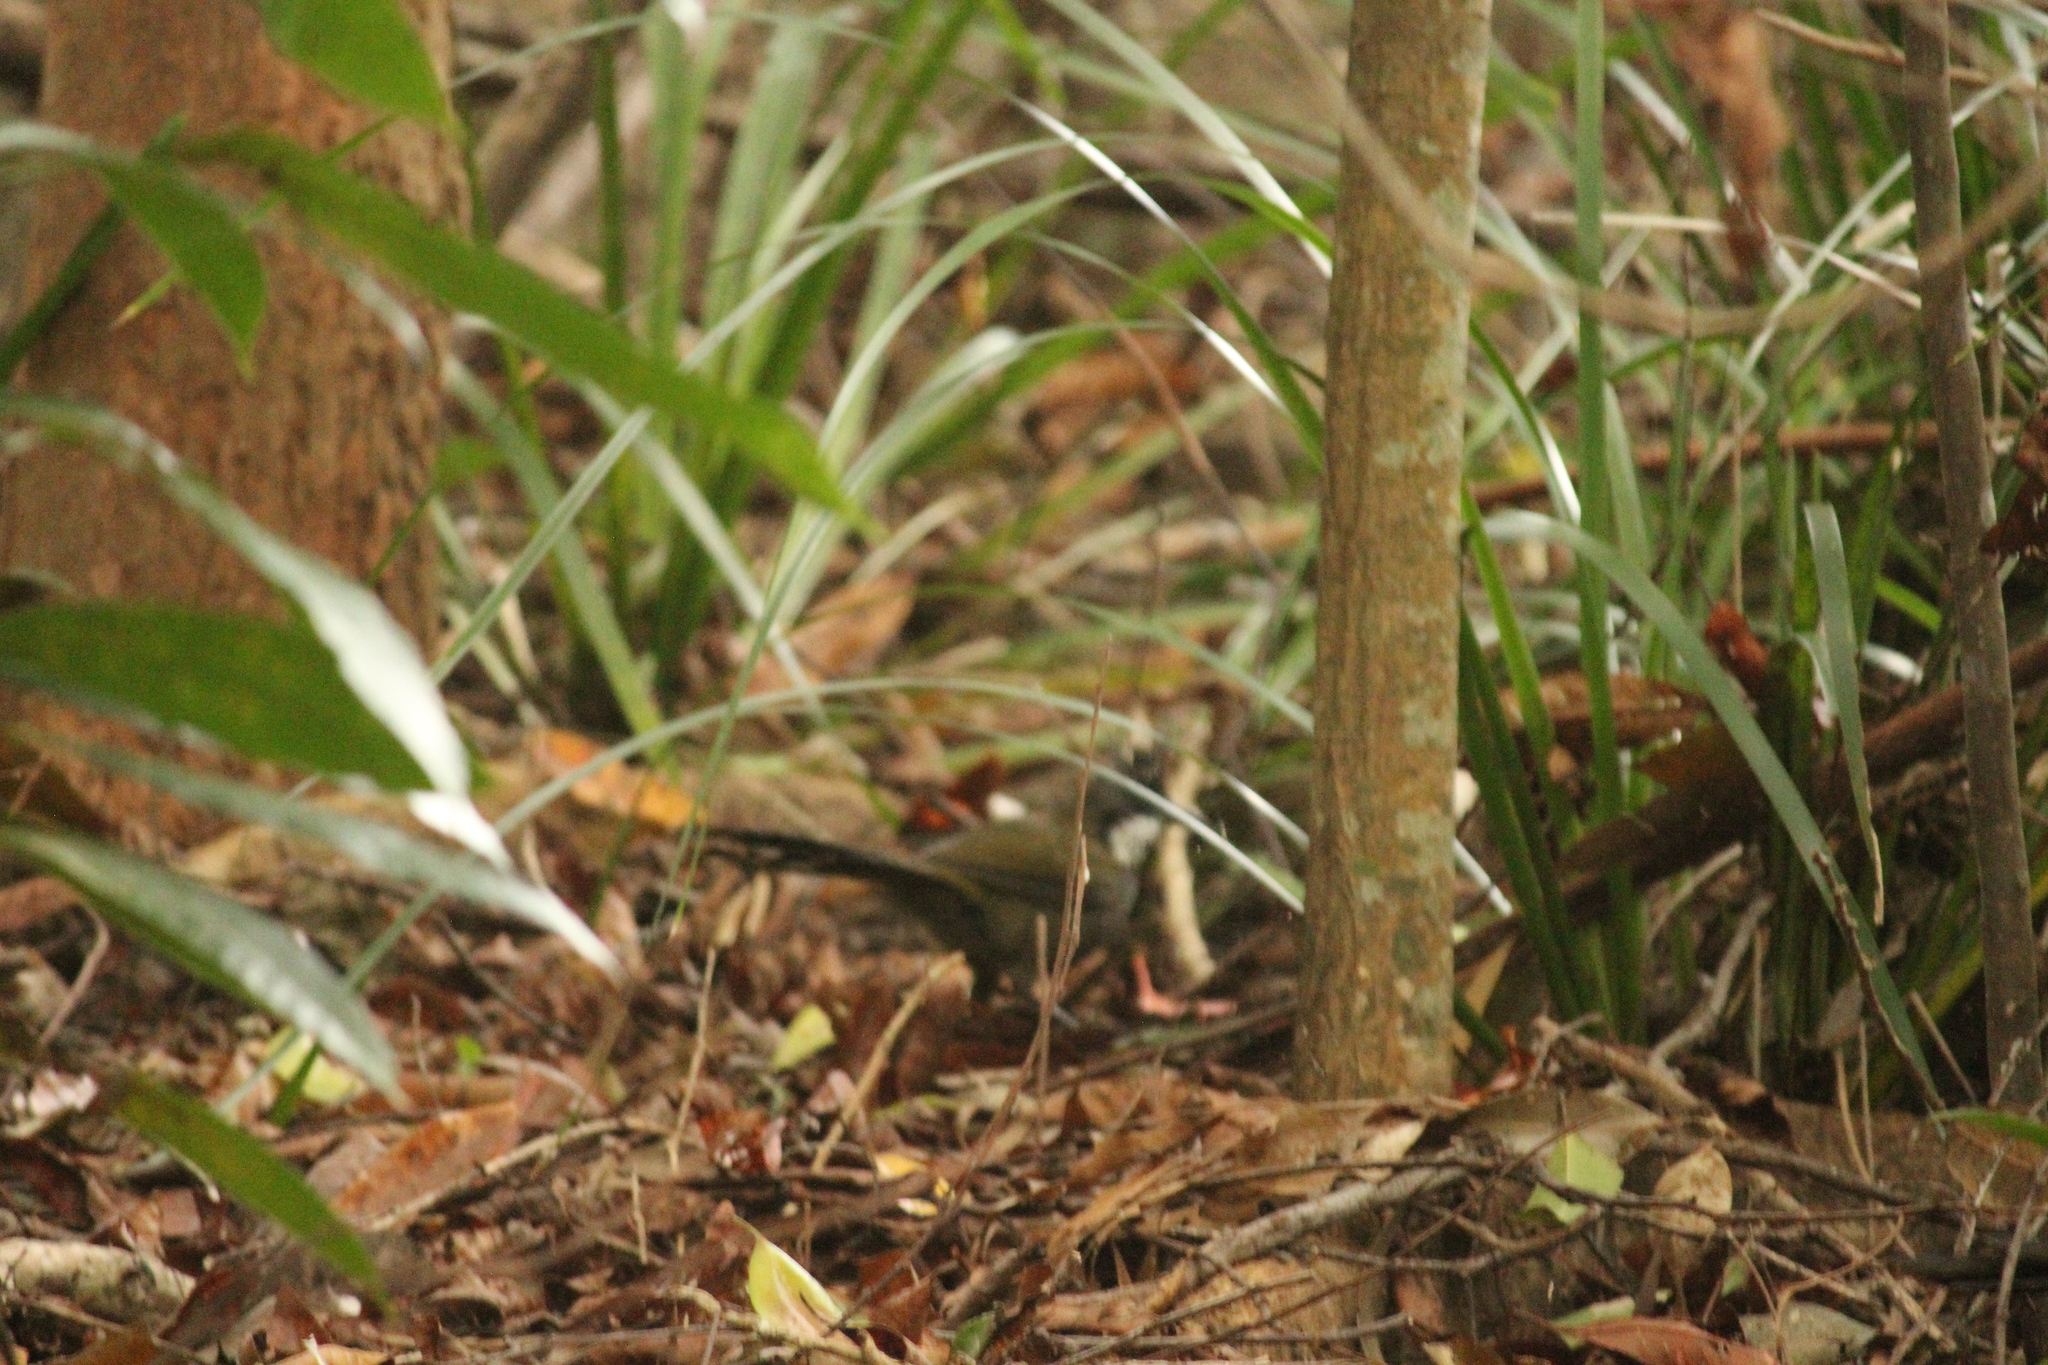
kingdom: Animalia
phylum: Chordata
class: Aves
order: Passeriformes
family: Psophodidae
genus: Psophodes
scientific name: Psophodes olivaceus
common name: Eastern whipbird
